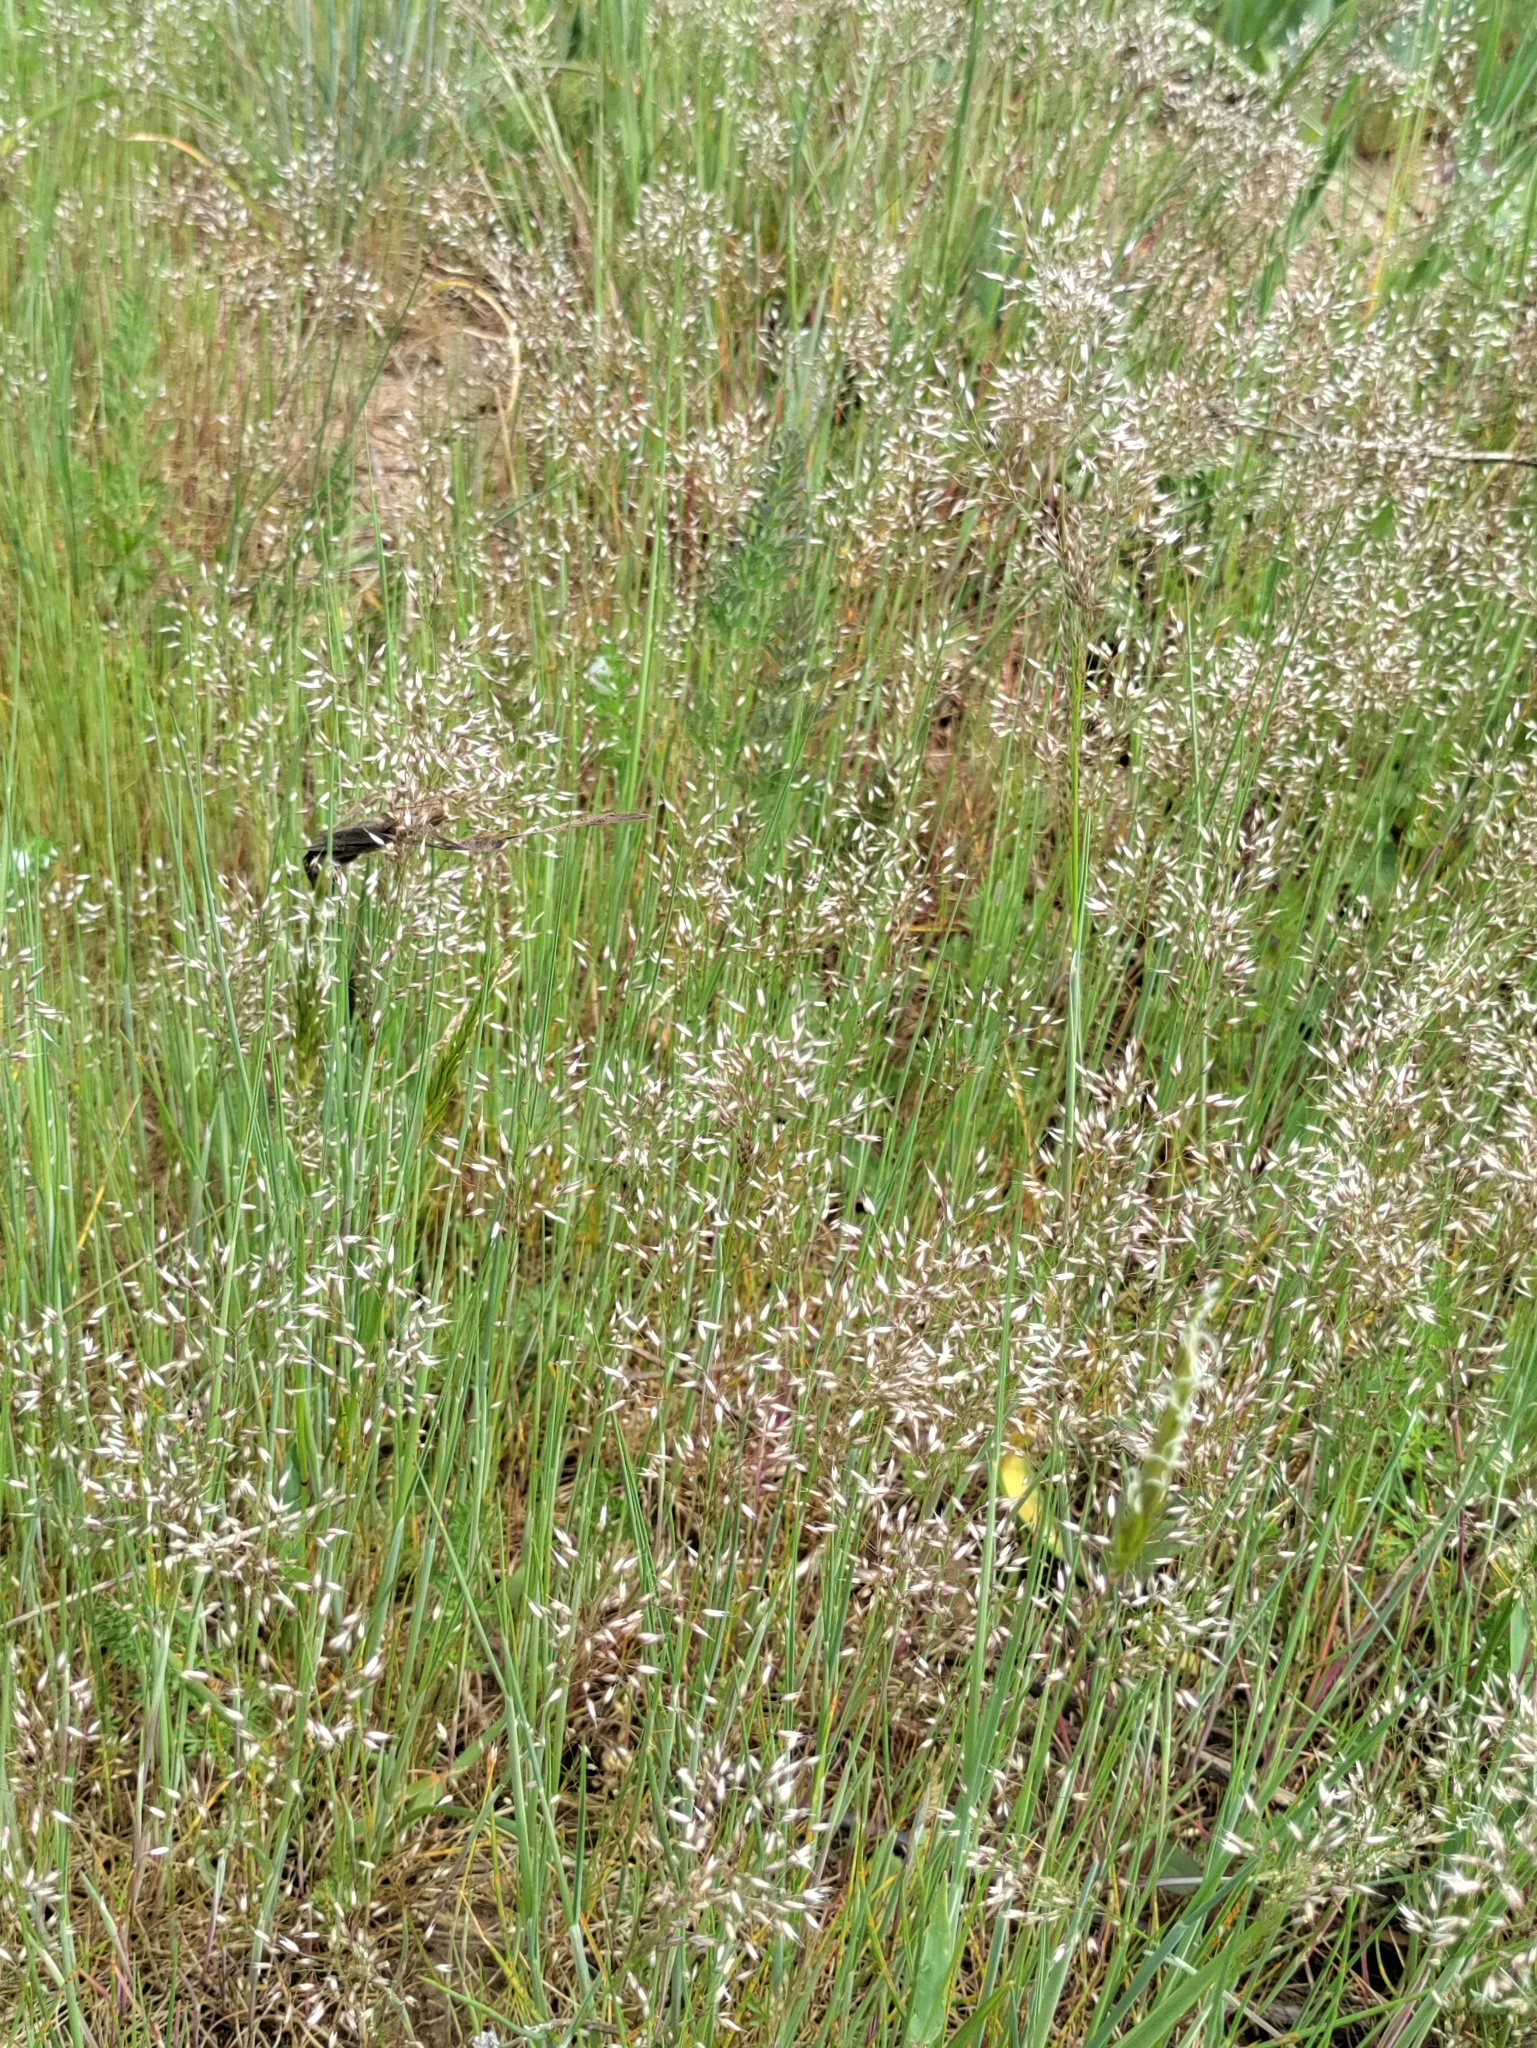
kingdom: Plantae
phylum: Tracheophyta
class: Liliopsida
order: Poales
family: Poaceae
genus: Aira
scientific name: Aira caryophyllea
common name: Silver hairgrass
